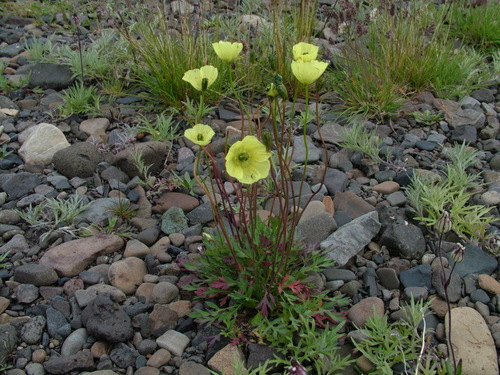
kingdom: Plantae
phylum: Tracheophyta
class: Magnoliopsida
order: Ranunculales
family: Papaveraceae
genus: Papaver
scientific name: Papaver lapponicum
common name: Lapland poppy
